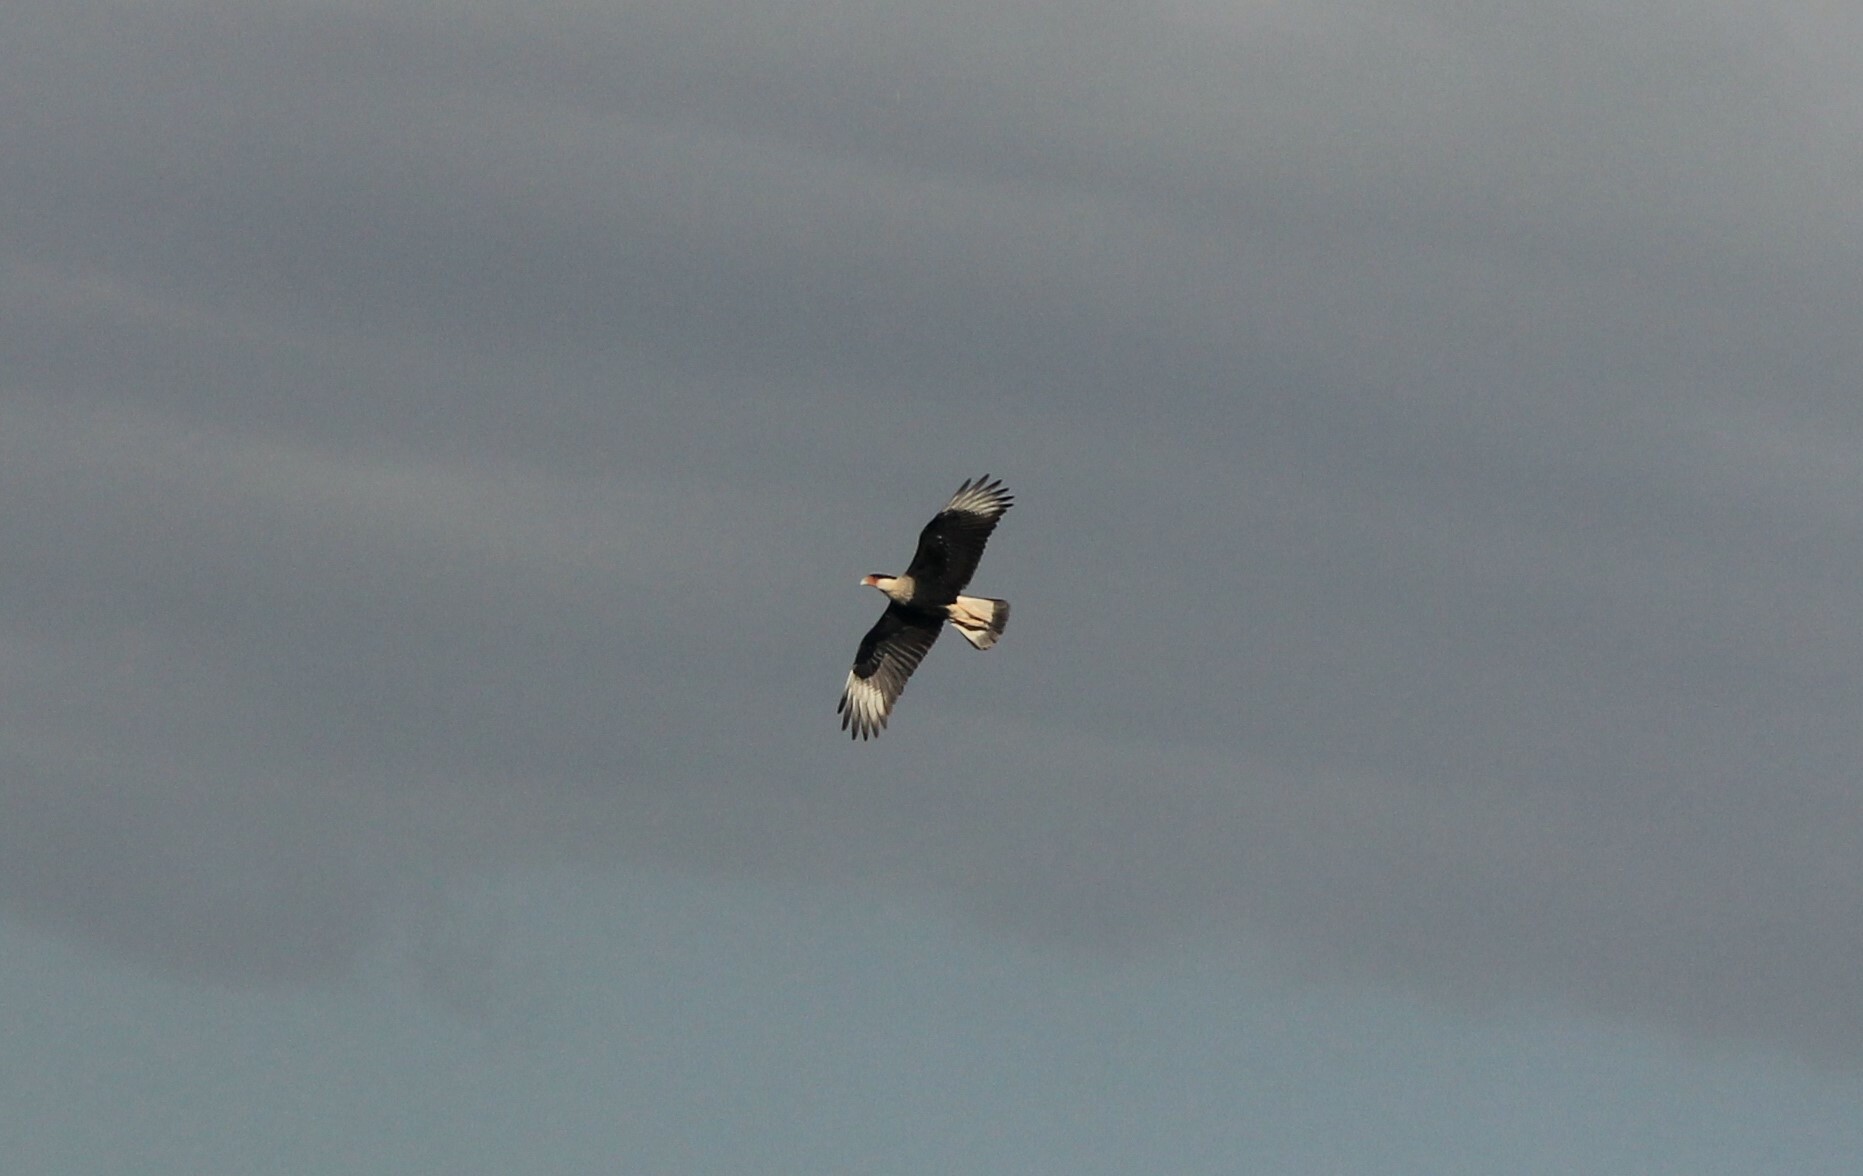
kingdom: Animalia
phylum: Chordata
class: Aves
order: Falconiformes
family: Falconidae
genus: Caracara
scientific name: Caracara plancus
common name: Southern caracara
